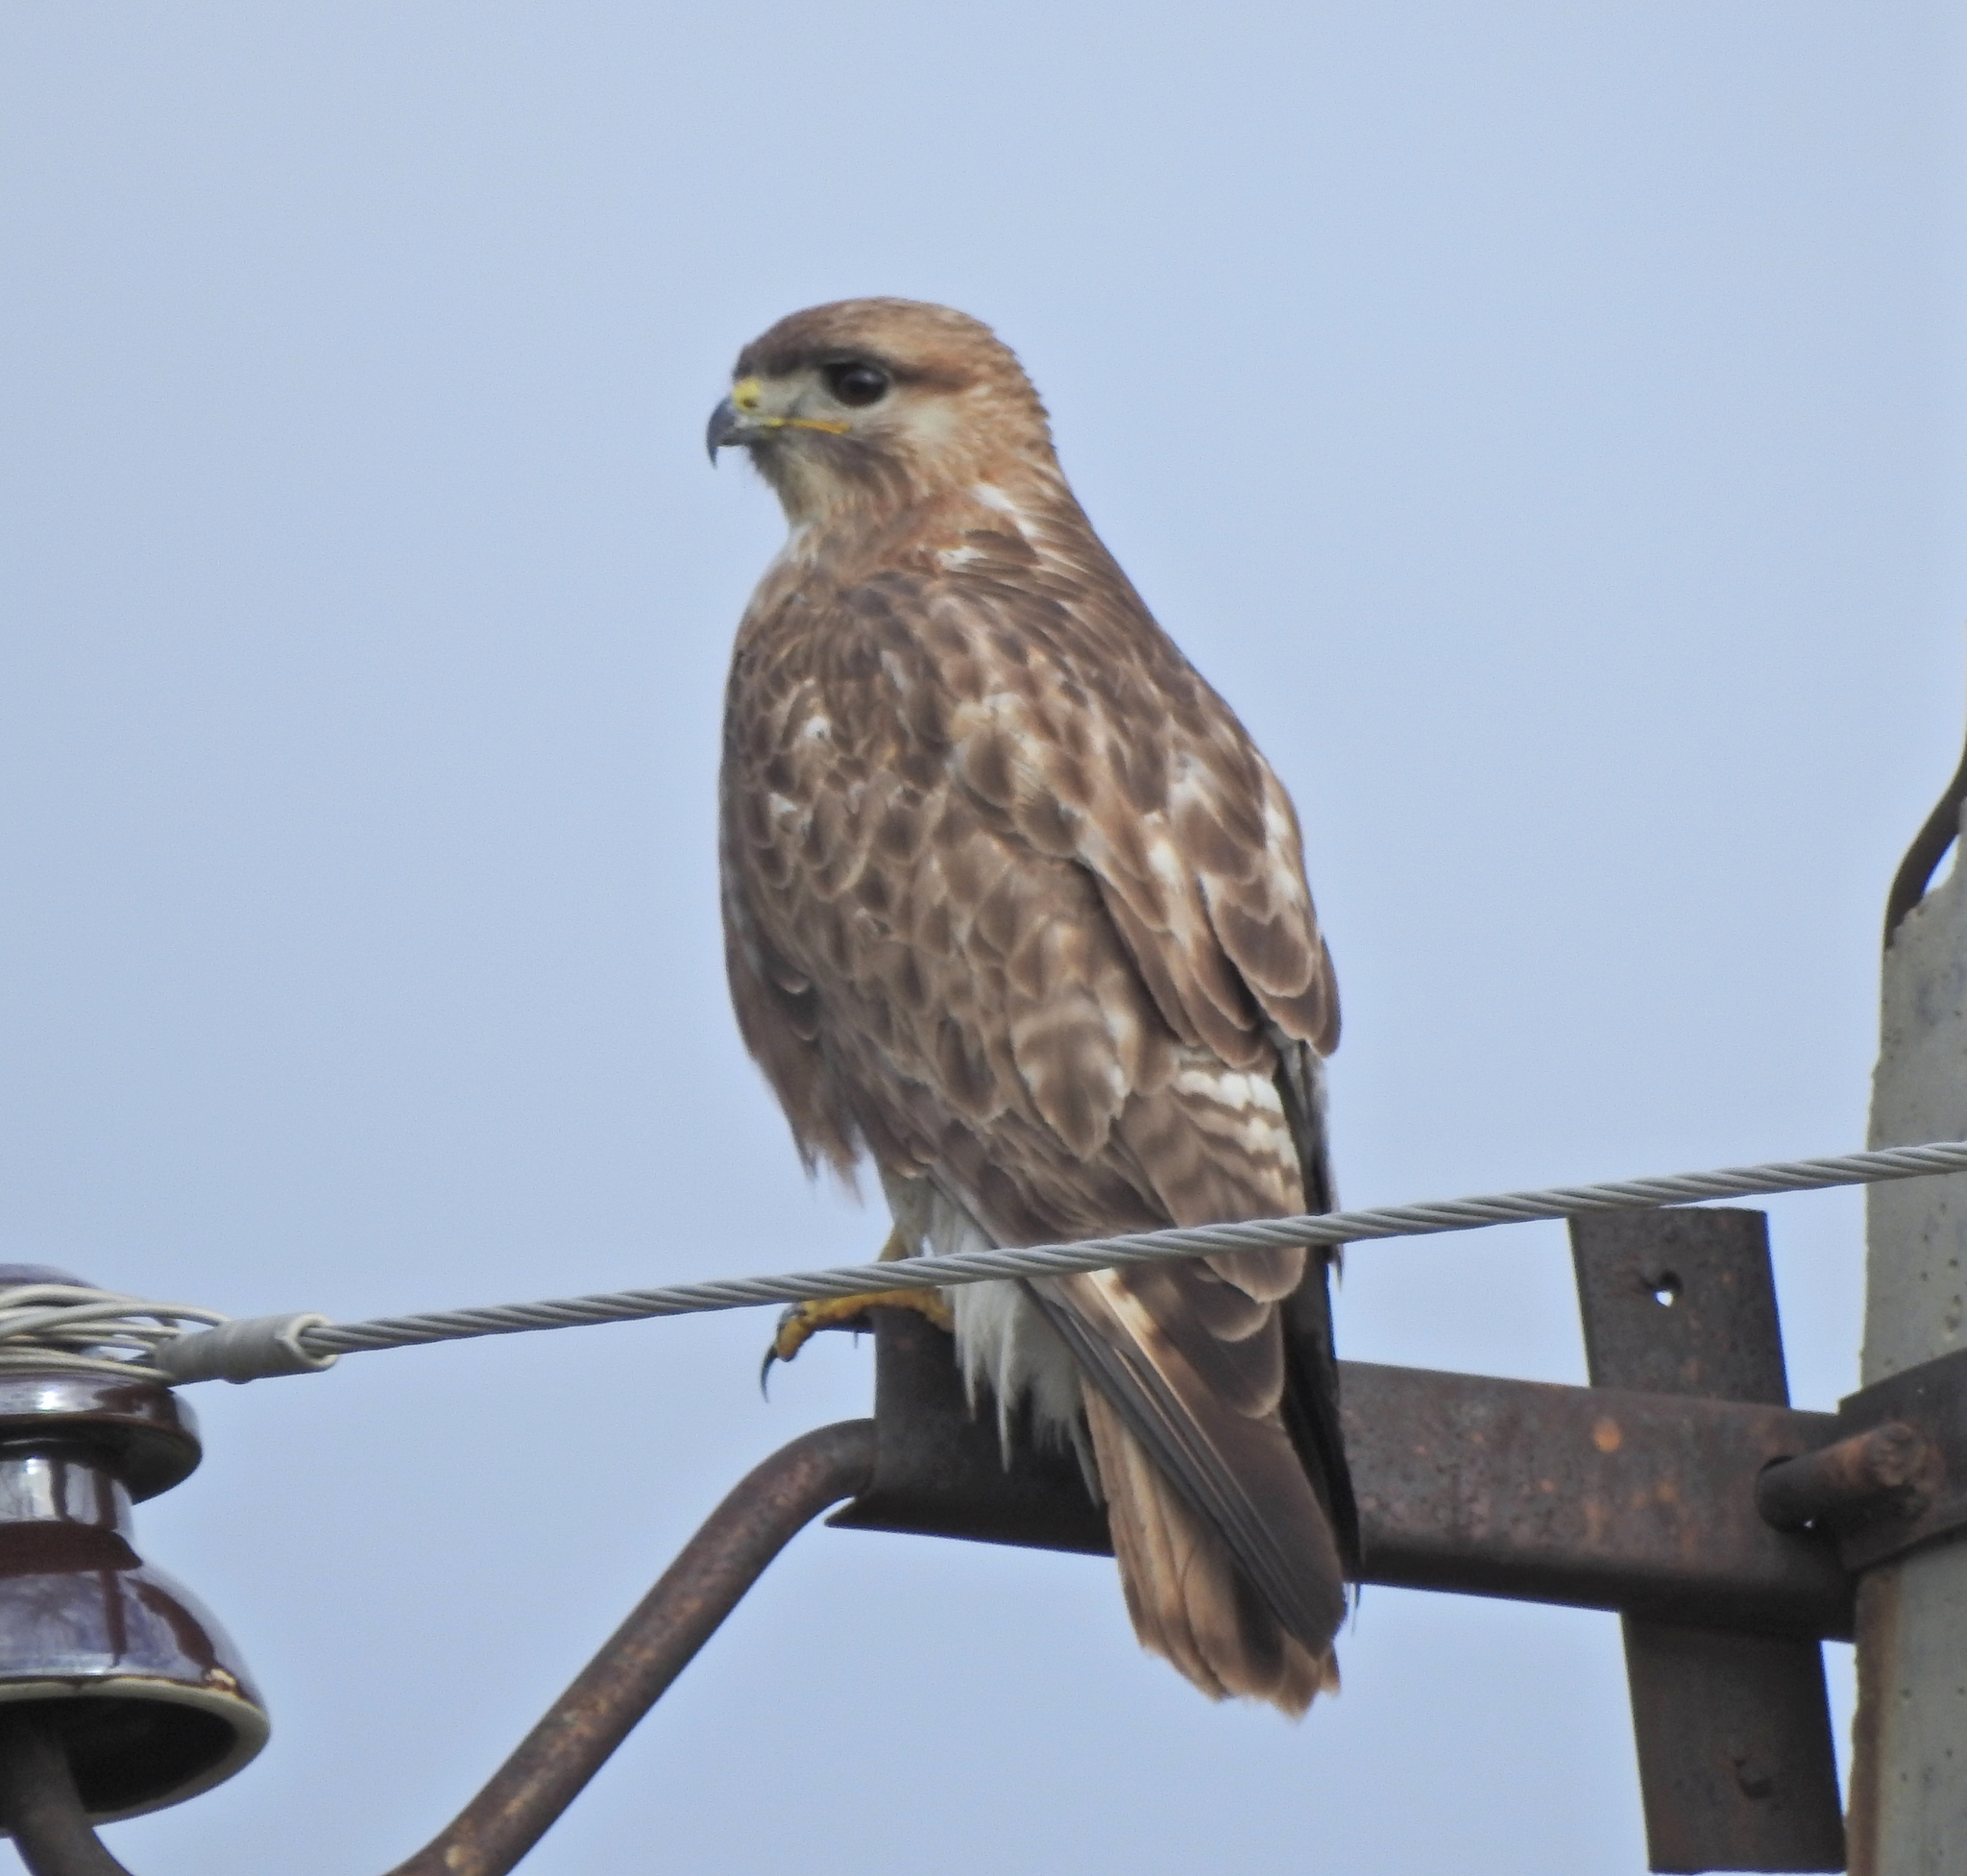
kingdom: Animalia
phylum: Chordata
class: Aves
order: Accipitriformes
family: Accipitridae
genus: Buteo
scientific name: Buteo japonicus
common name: Eastern buzzard
